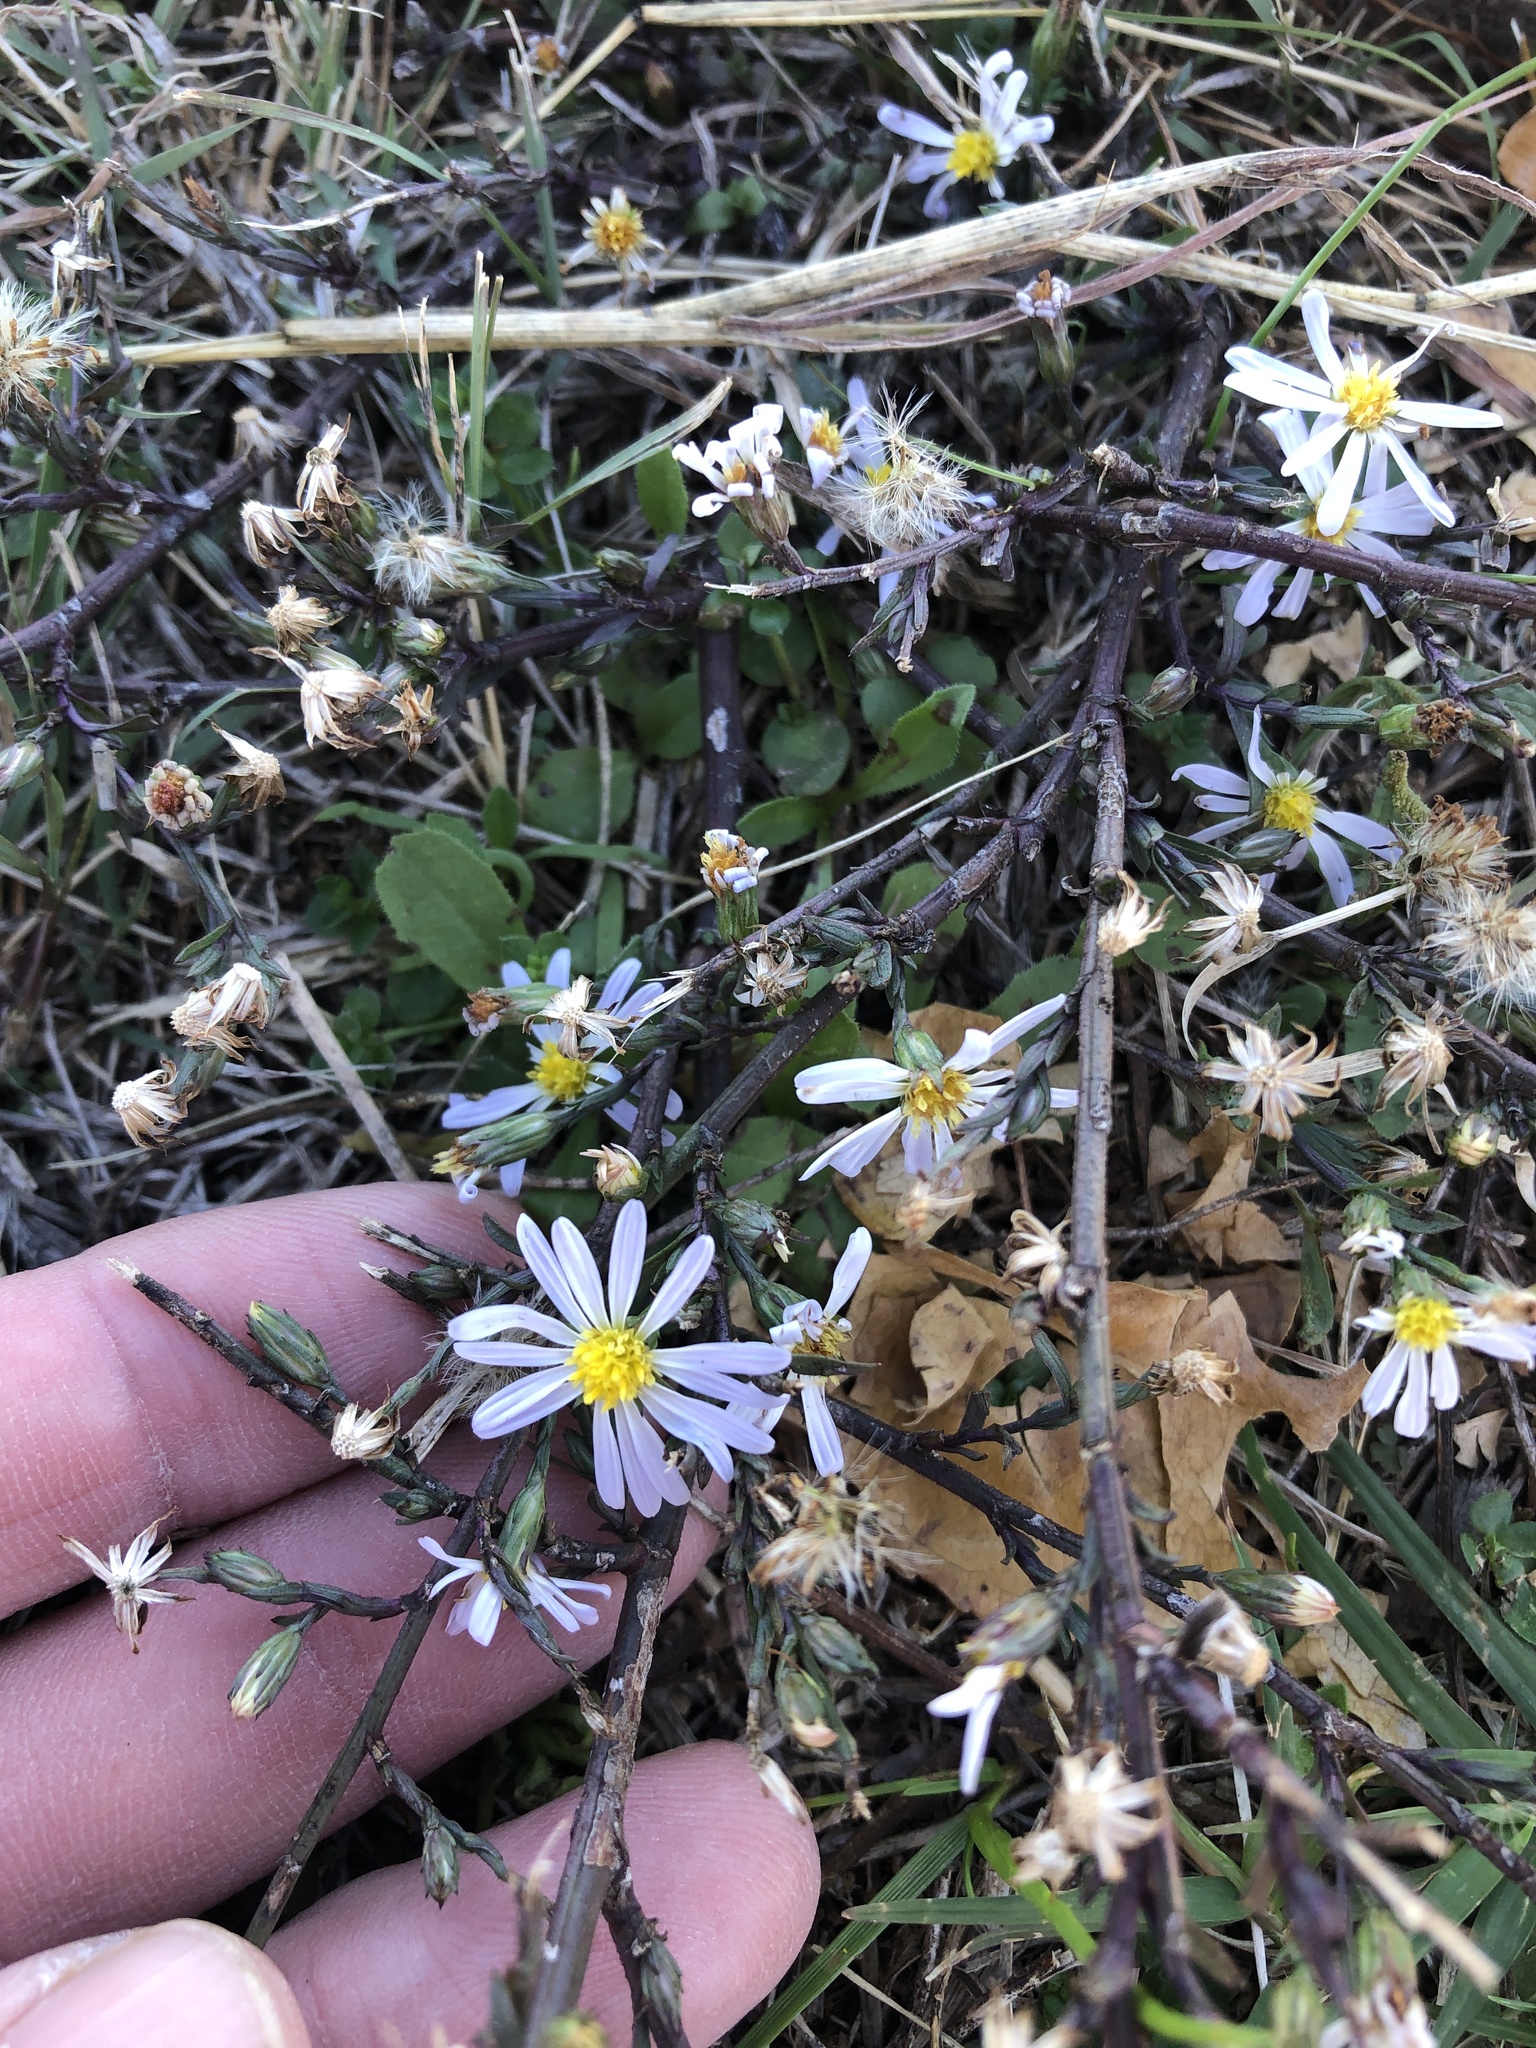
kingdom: Plantae
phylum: Tracheophyta
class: Magnoliopsida
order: Asterales
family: Asteraceae
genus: Symphyotrichum
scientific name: Symphyotrichum divaricatum
